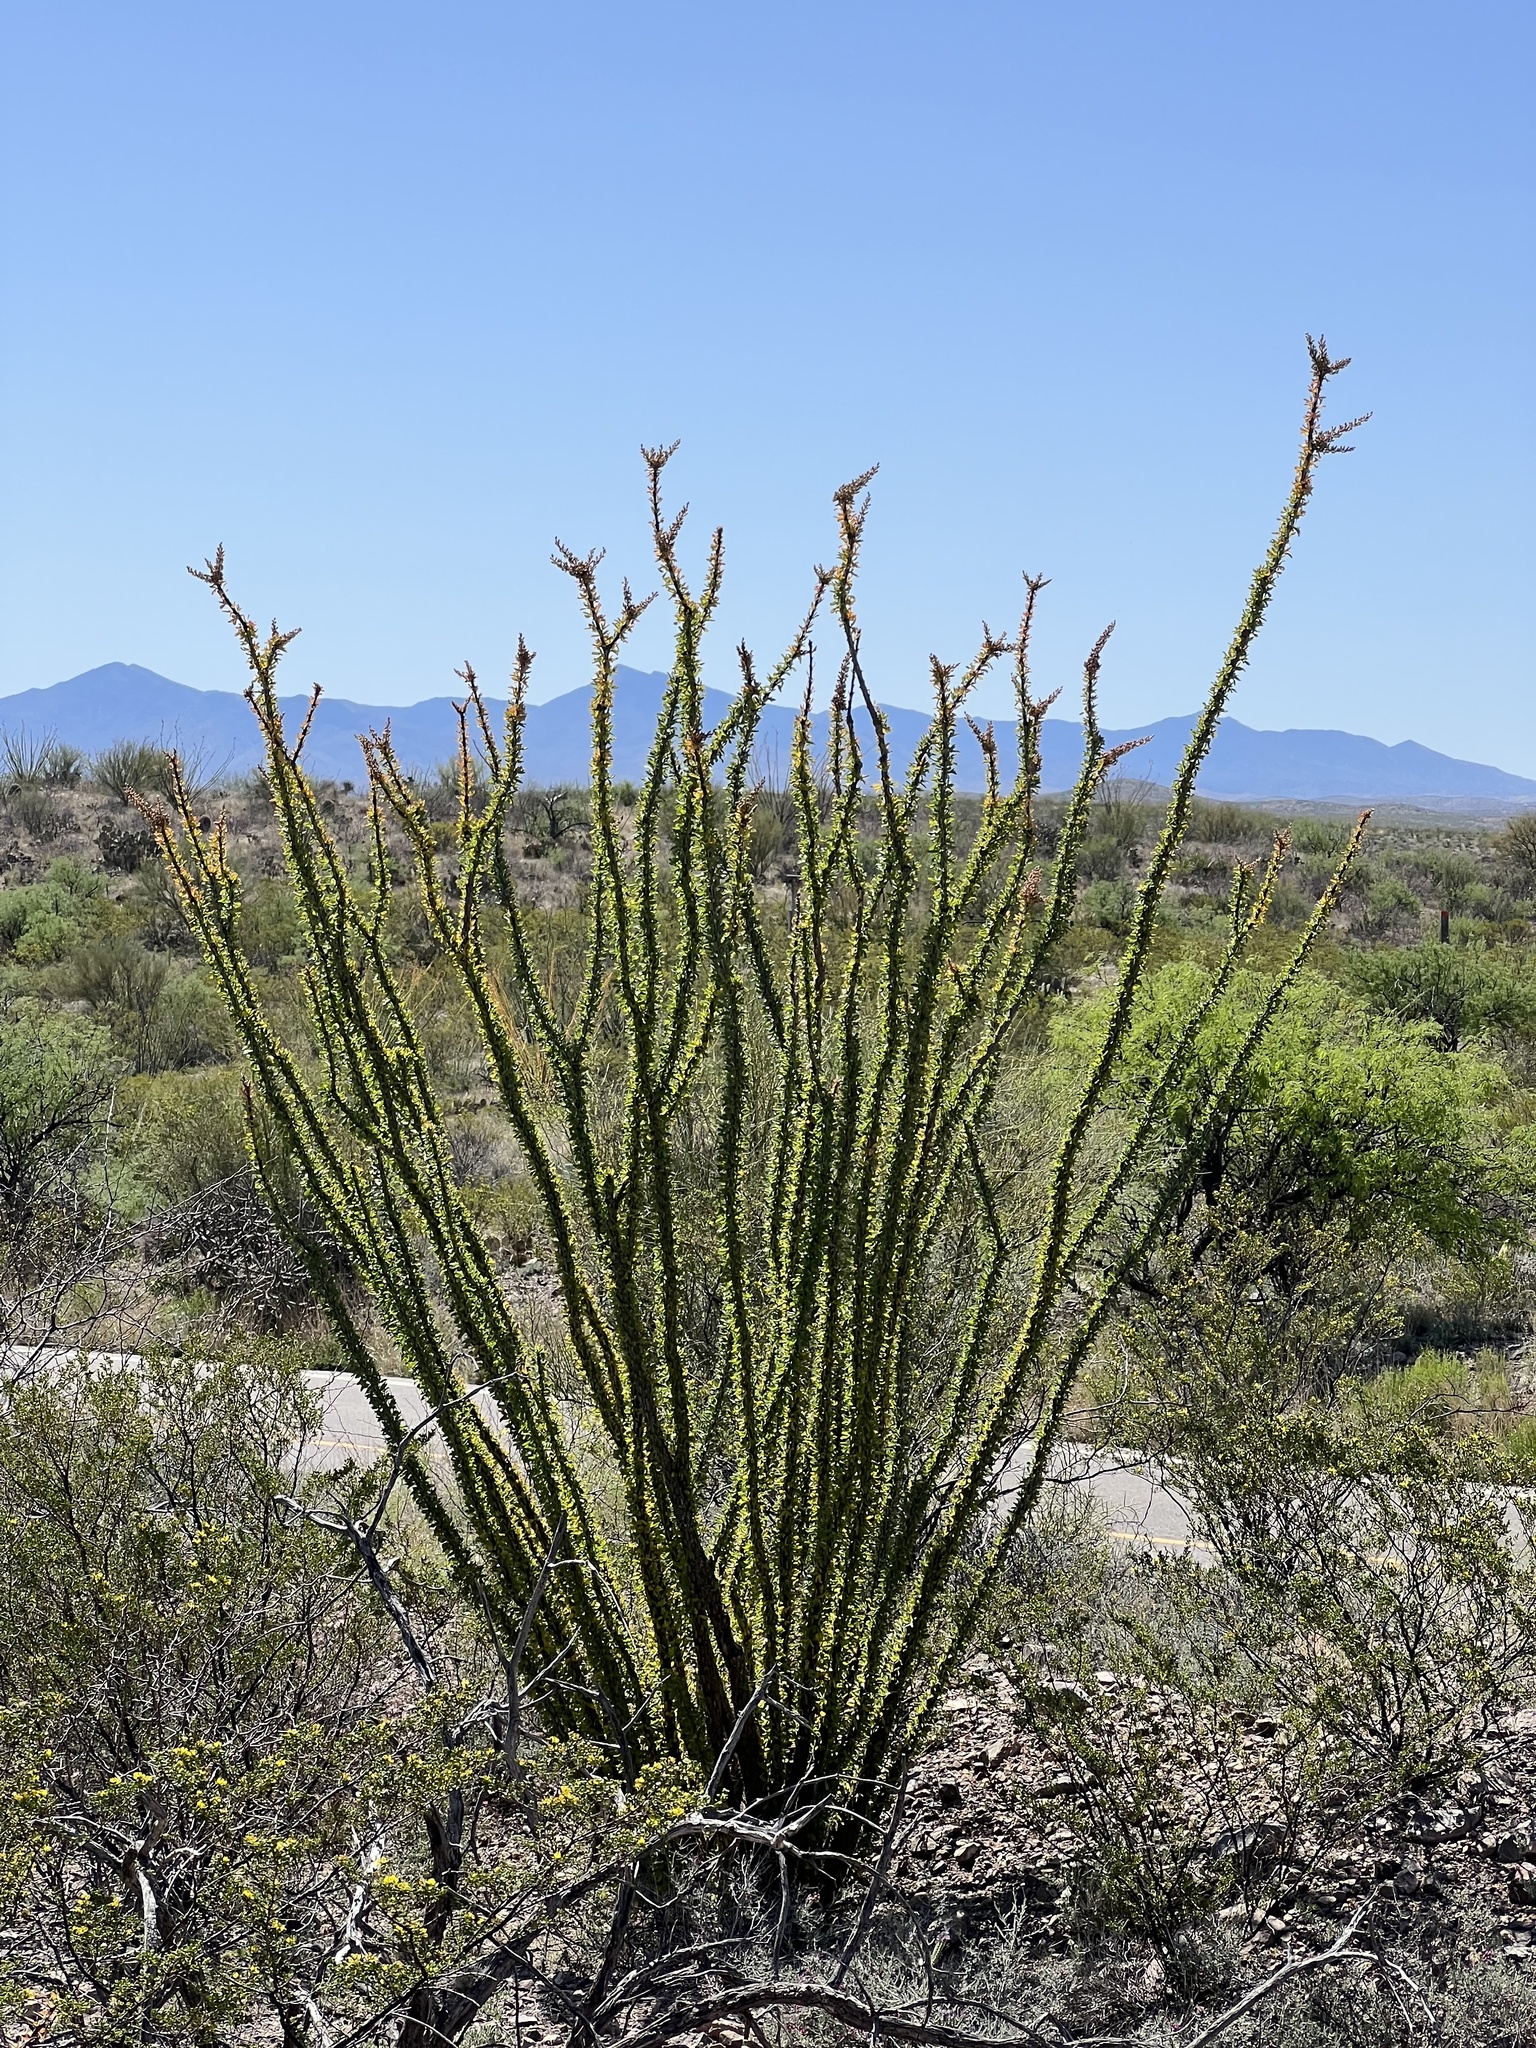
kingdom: Plantae
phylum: Tracheophyta
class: Magnoliopsida
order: Ericales
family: Fouquieriaceae
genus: Fouquieria
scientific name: Fouquieria splendens
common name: Vine-cactus
